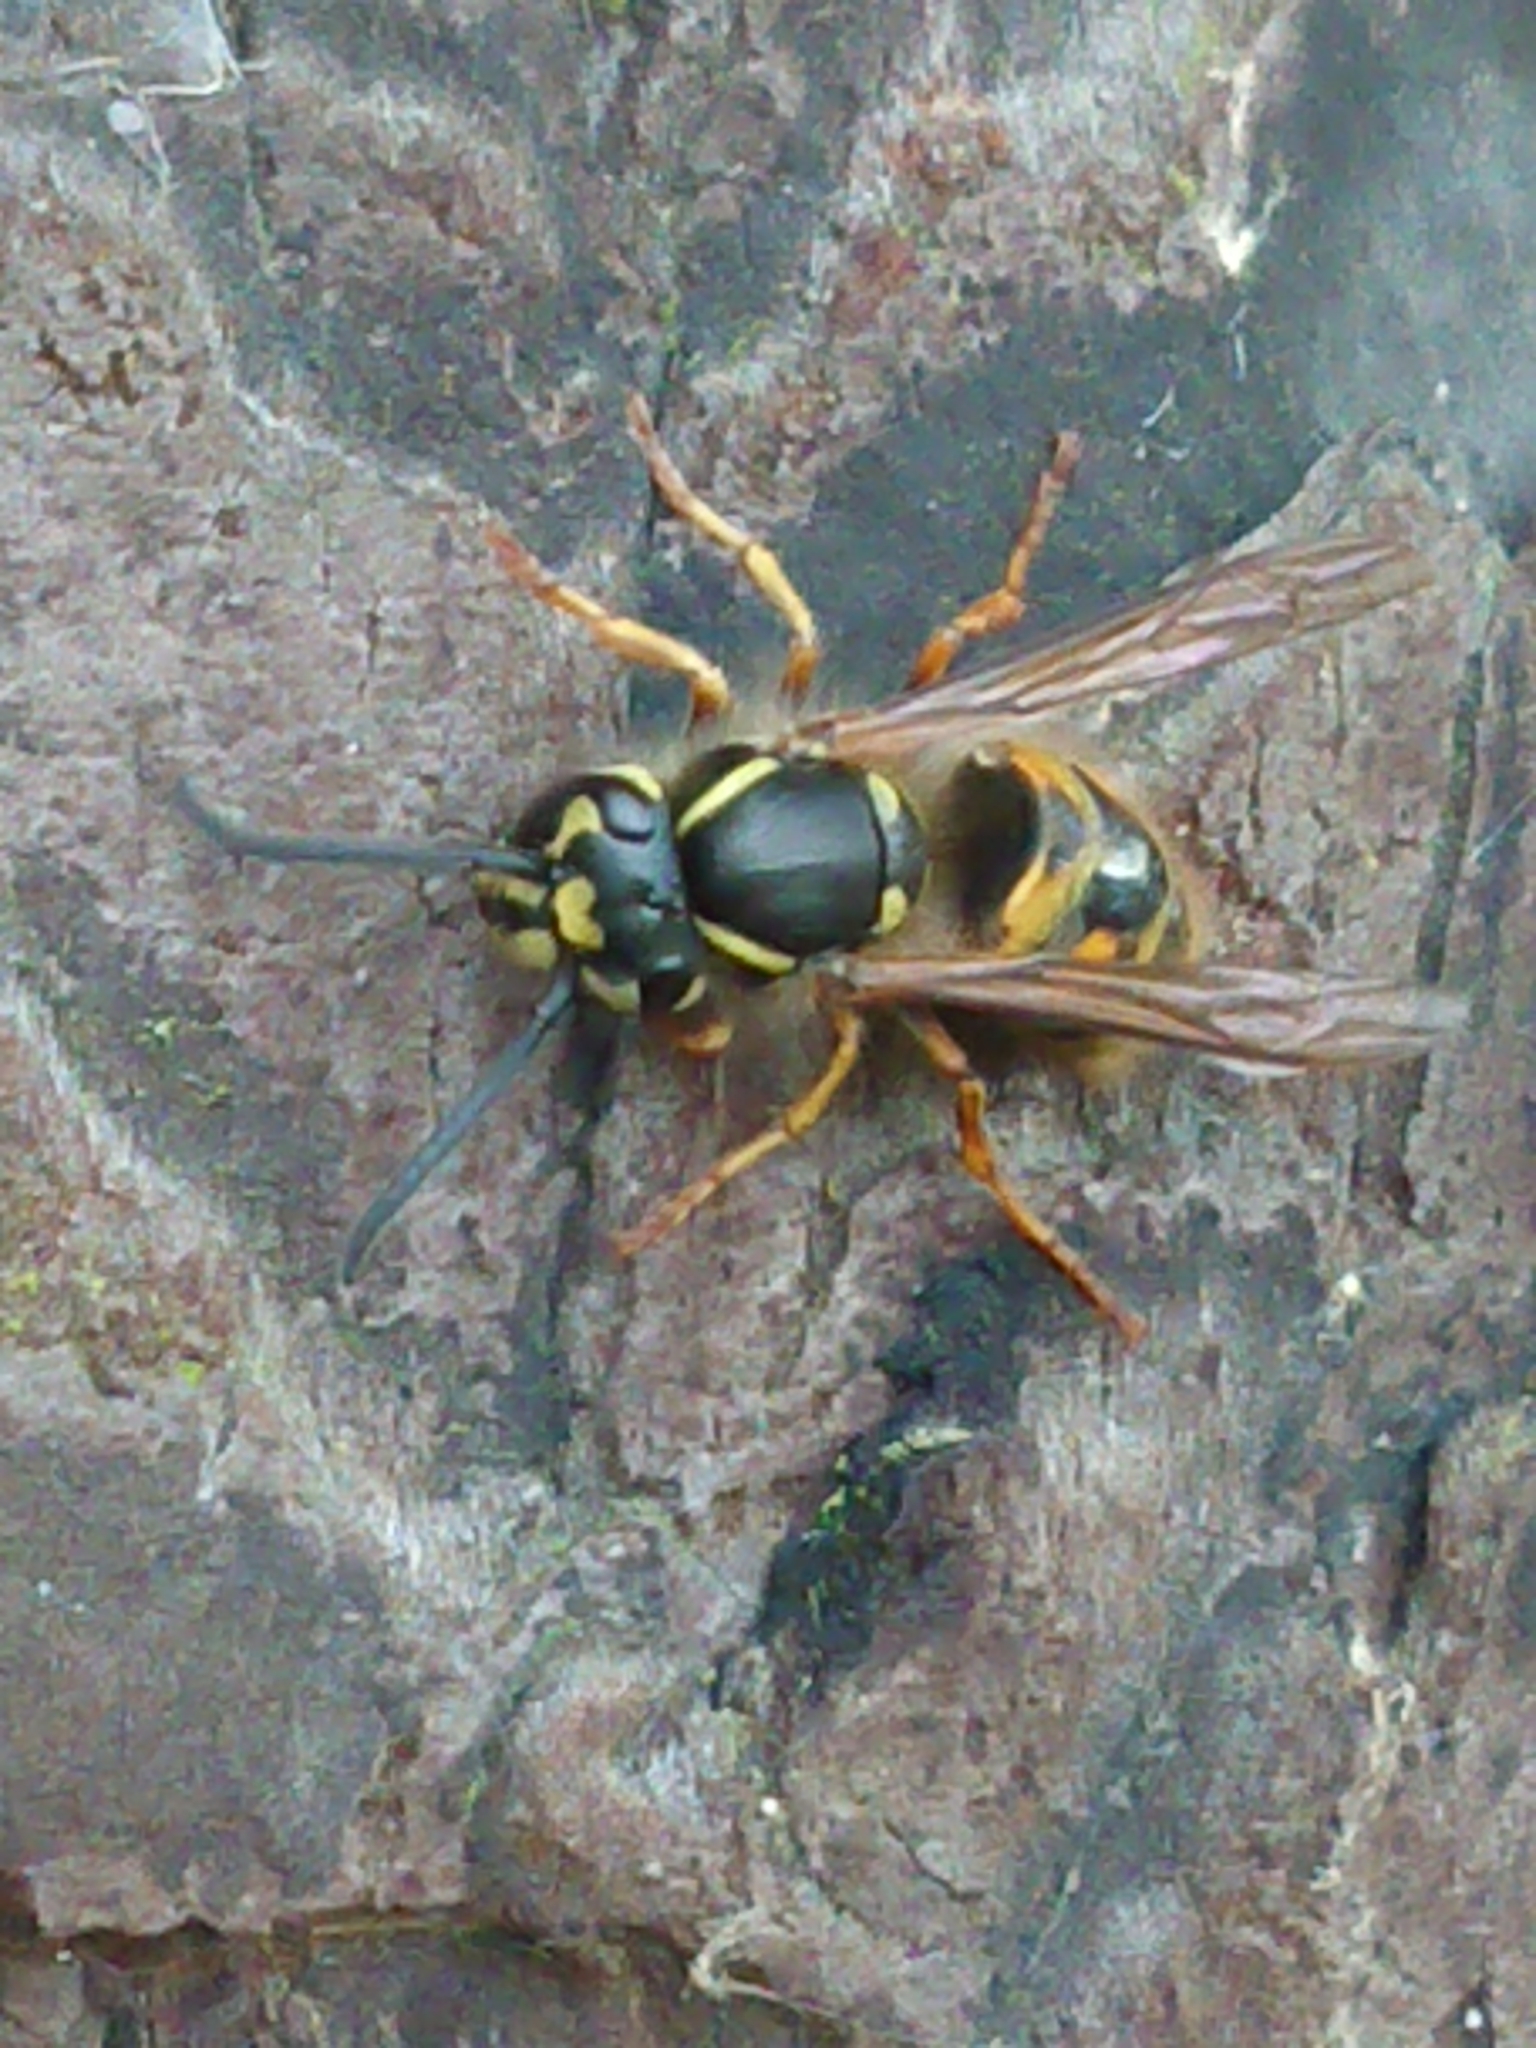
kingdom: Animalia
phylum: Arthropoda
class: Insecta
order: Hymenoptera
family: Vespidae
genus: Vespula
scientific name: Vespula vulgaris
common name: Common wasp
